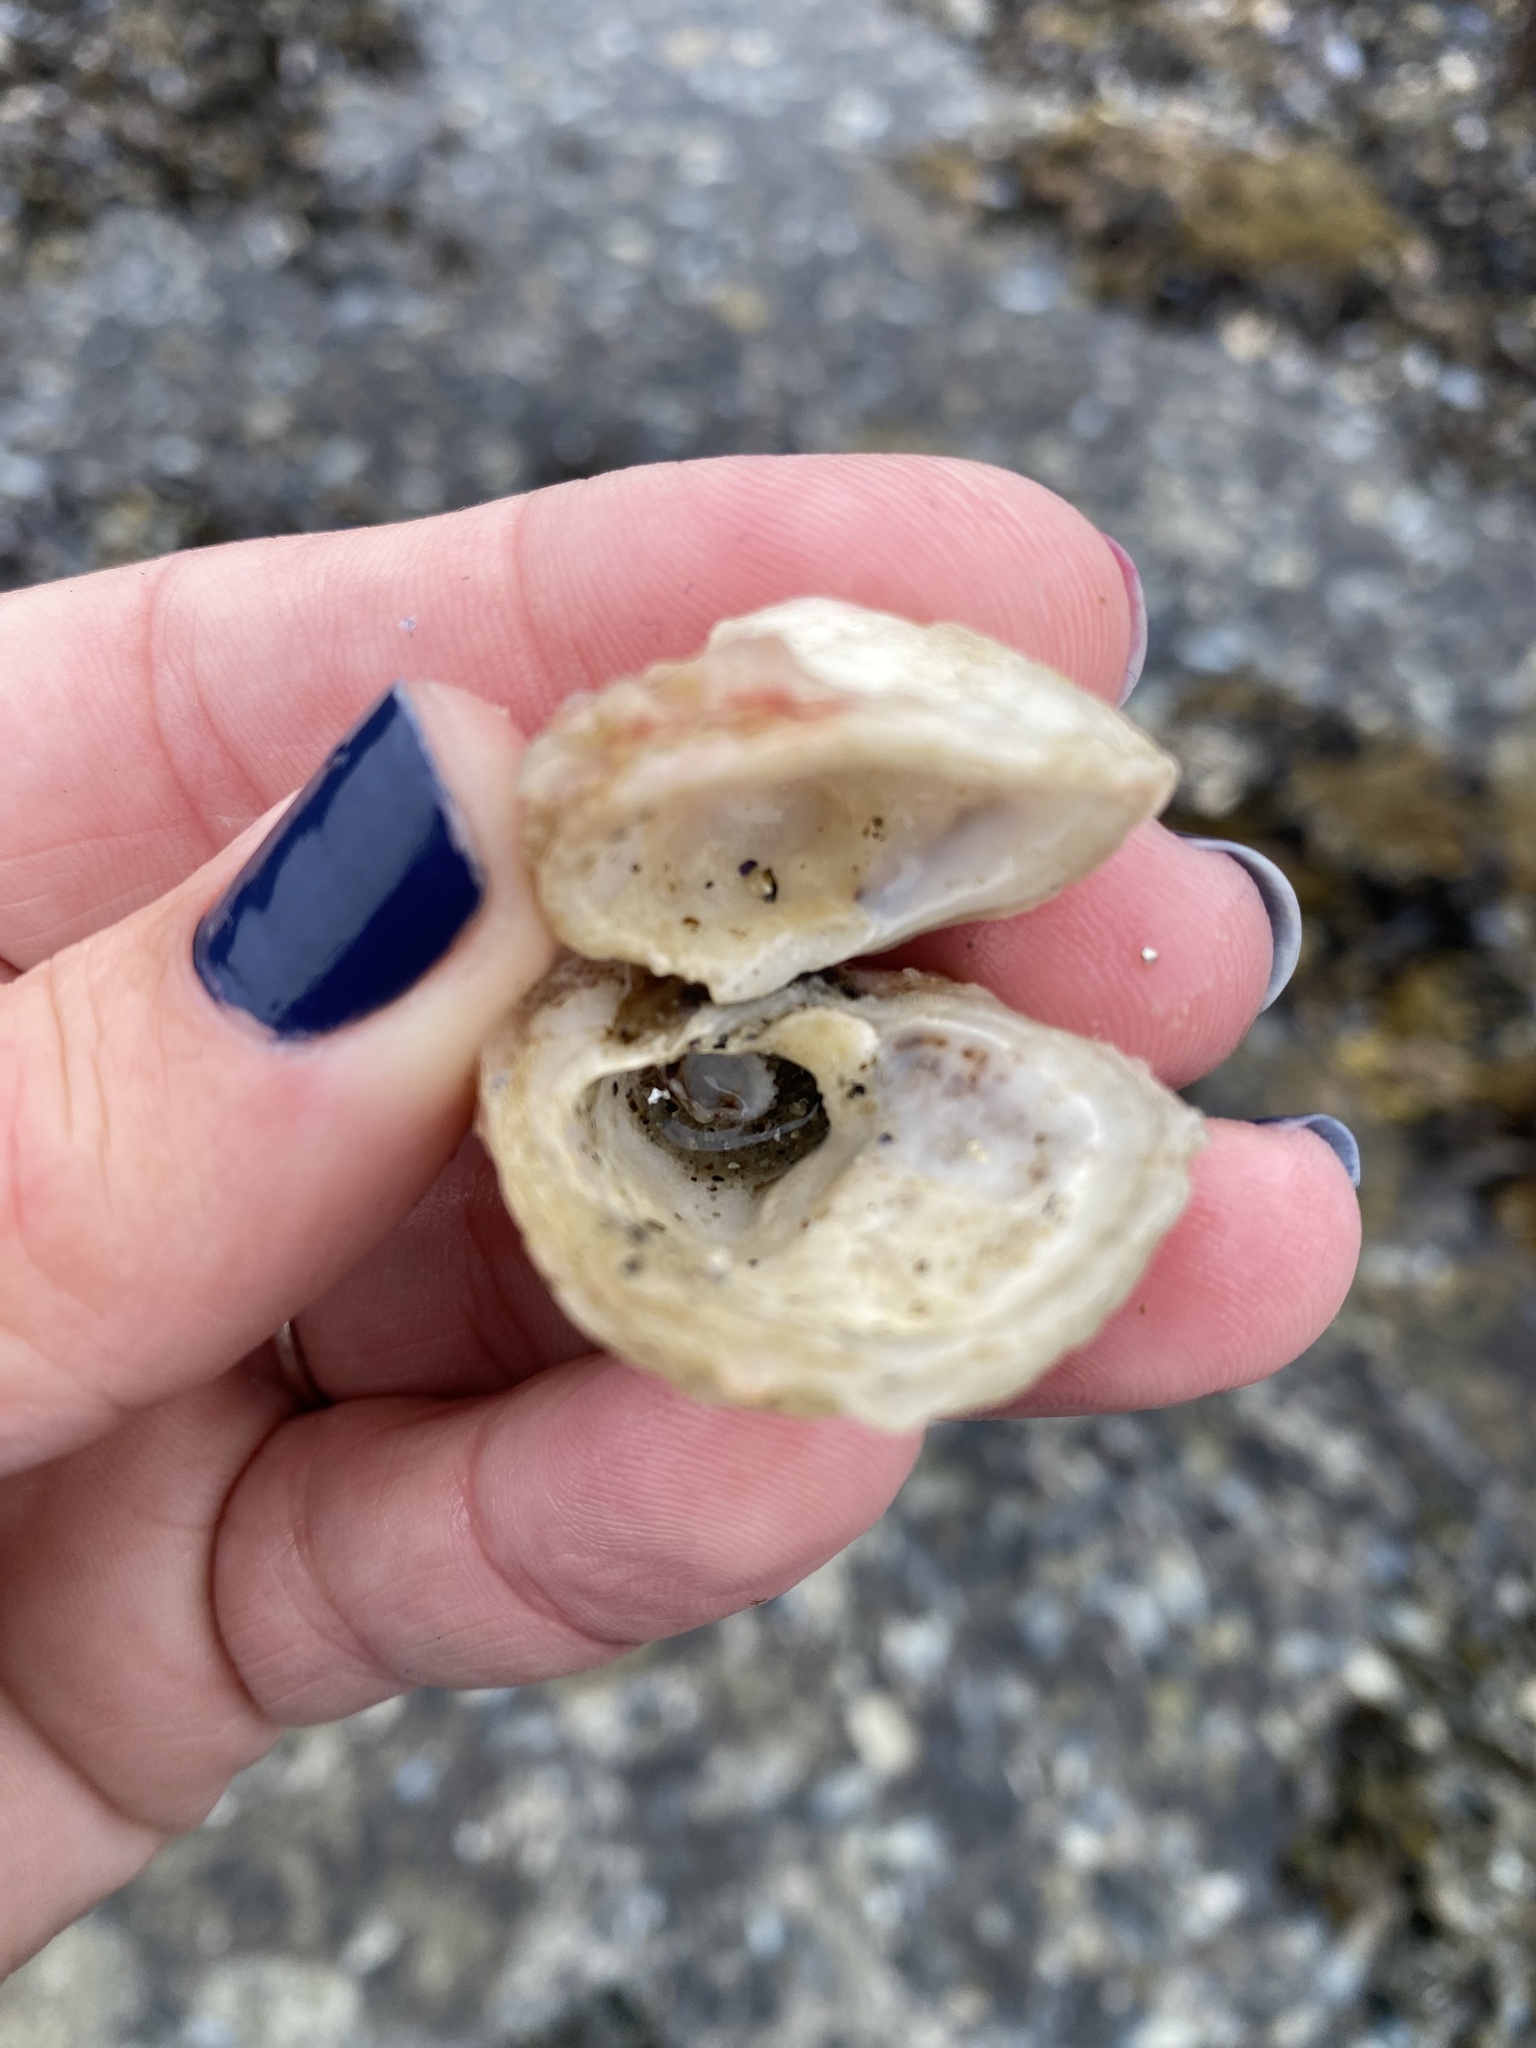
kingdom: Animalia
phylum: Mollusca
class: Bivalvia
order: Venerida
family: Chamidae
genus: Chama
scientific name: Chama arcana
